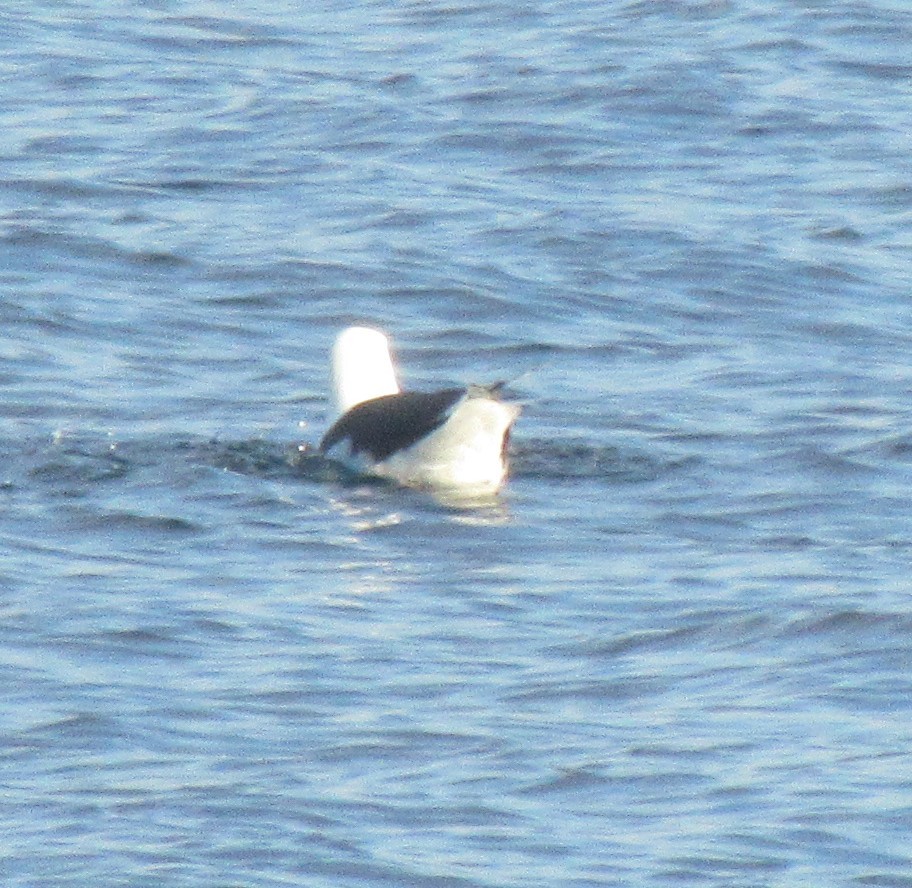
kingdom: Animalia
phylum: Chordata
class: Aves
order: Charadriiformes
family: Laridae
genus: Larus
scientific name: Larus marinus
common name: Great black-backed gull
